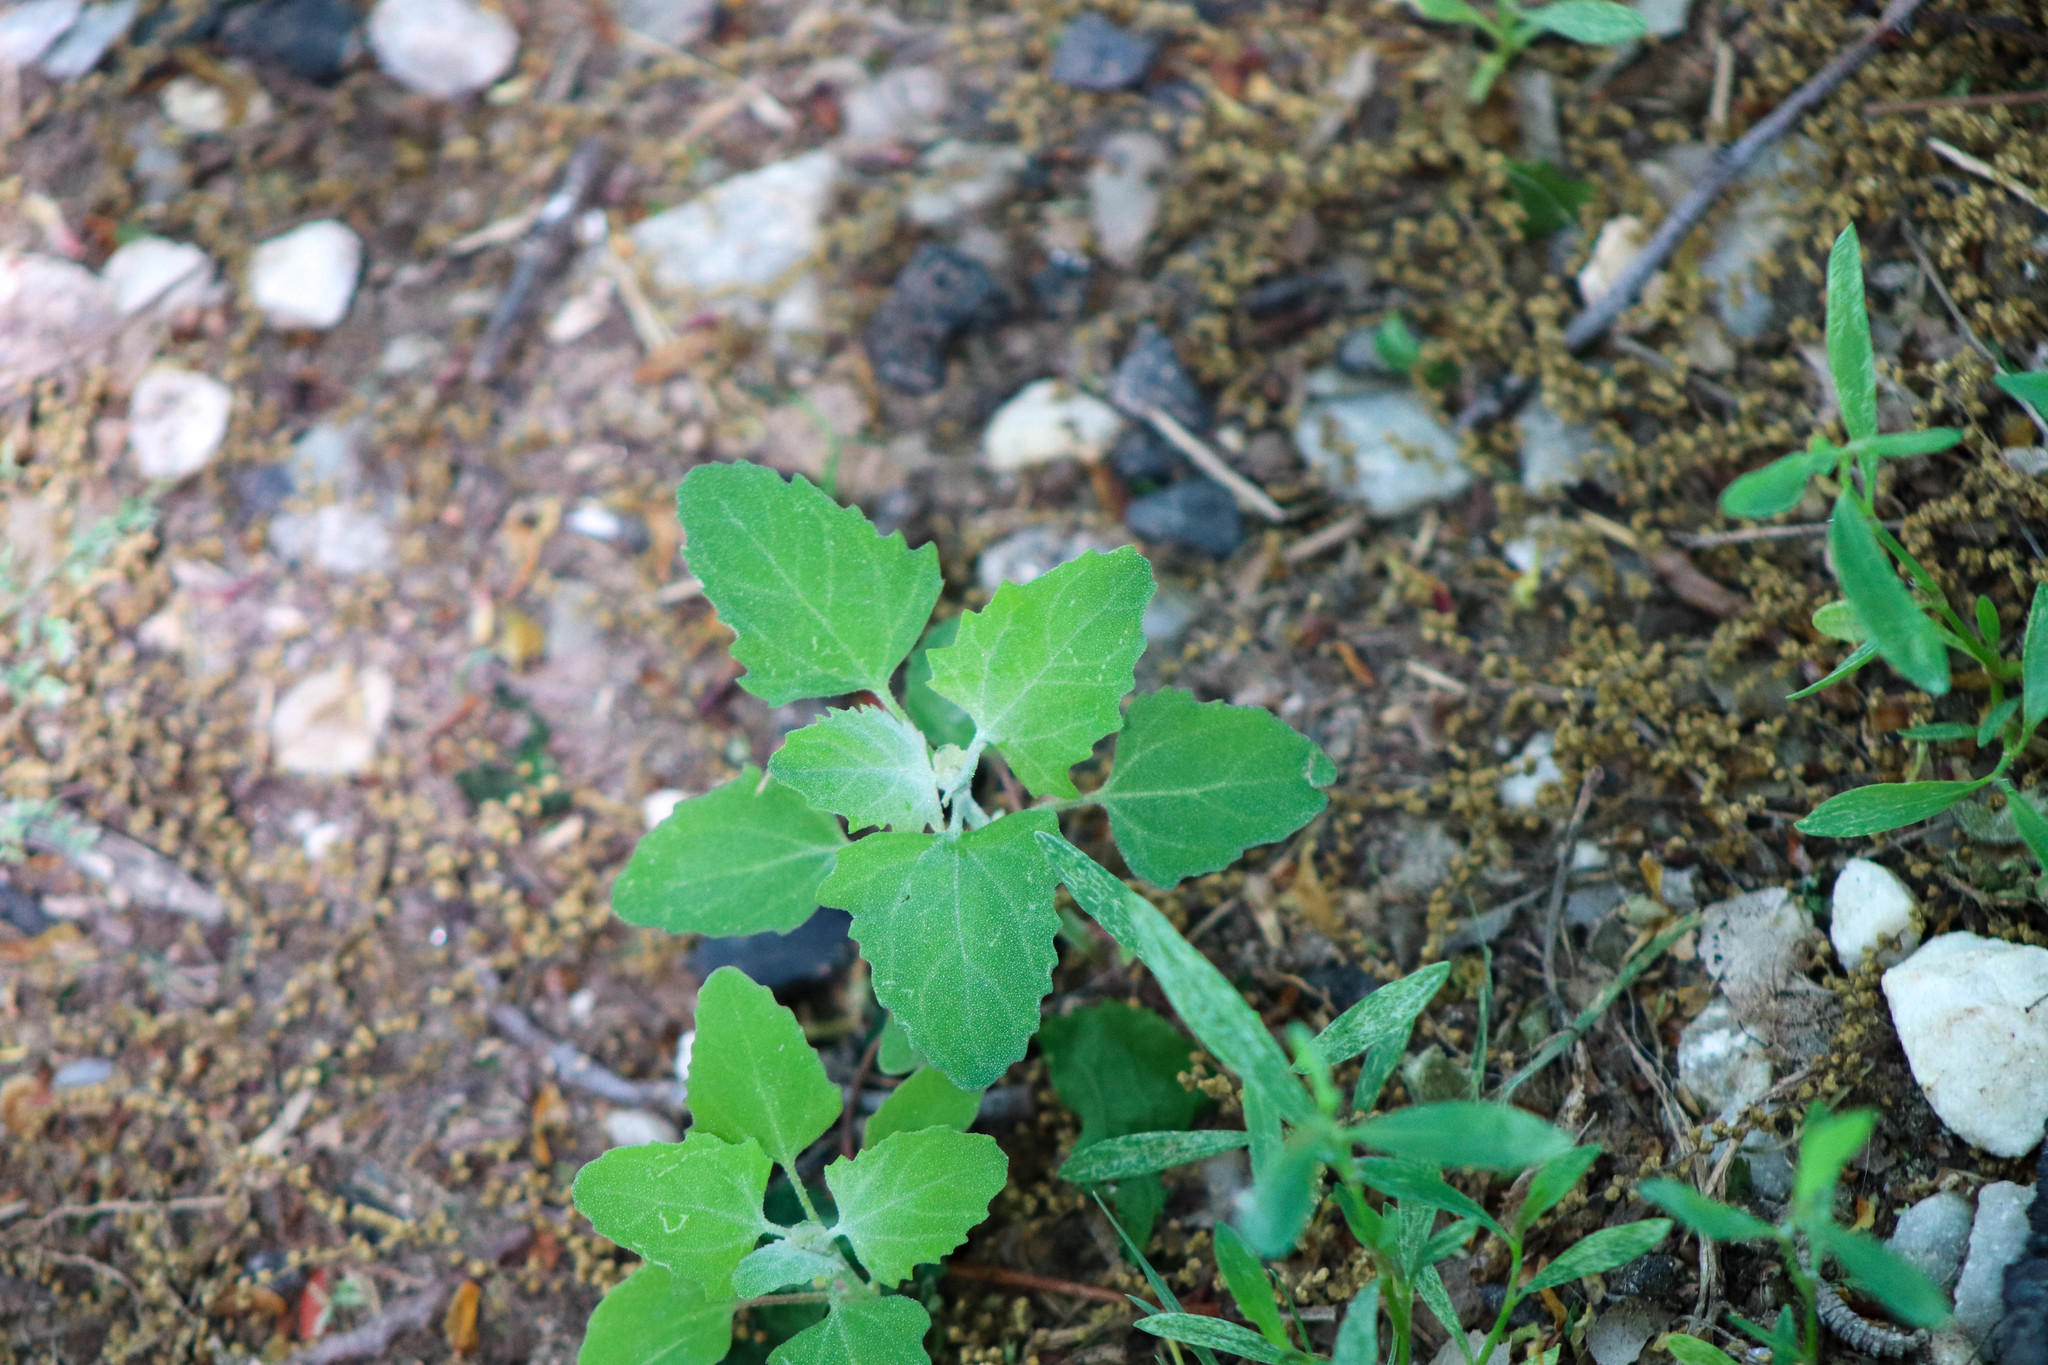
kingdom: Plantae
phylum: Tracheophyta
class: Magnoliopsida
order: Caryophyllales
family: Amaranthaceae
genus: Chenopodium
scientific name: Chenopodium album
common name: Fat-hen
